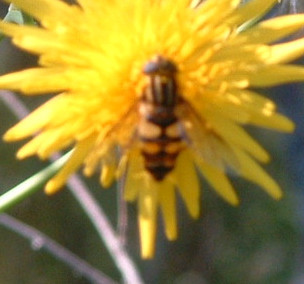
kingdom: Animalia
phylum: Arthropoda
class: Insecta
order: Diptera
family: Syrphidae
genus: Helophilus
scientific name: Helophilus fasciatus
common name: Narrow-headed marsh fly
